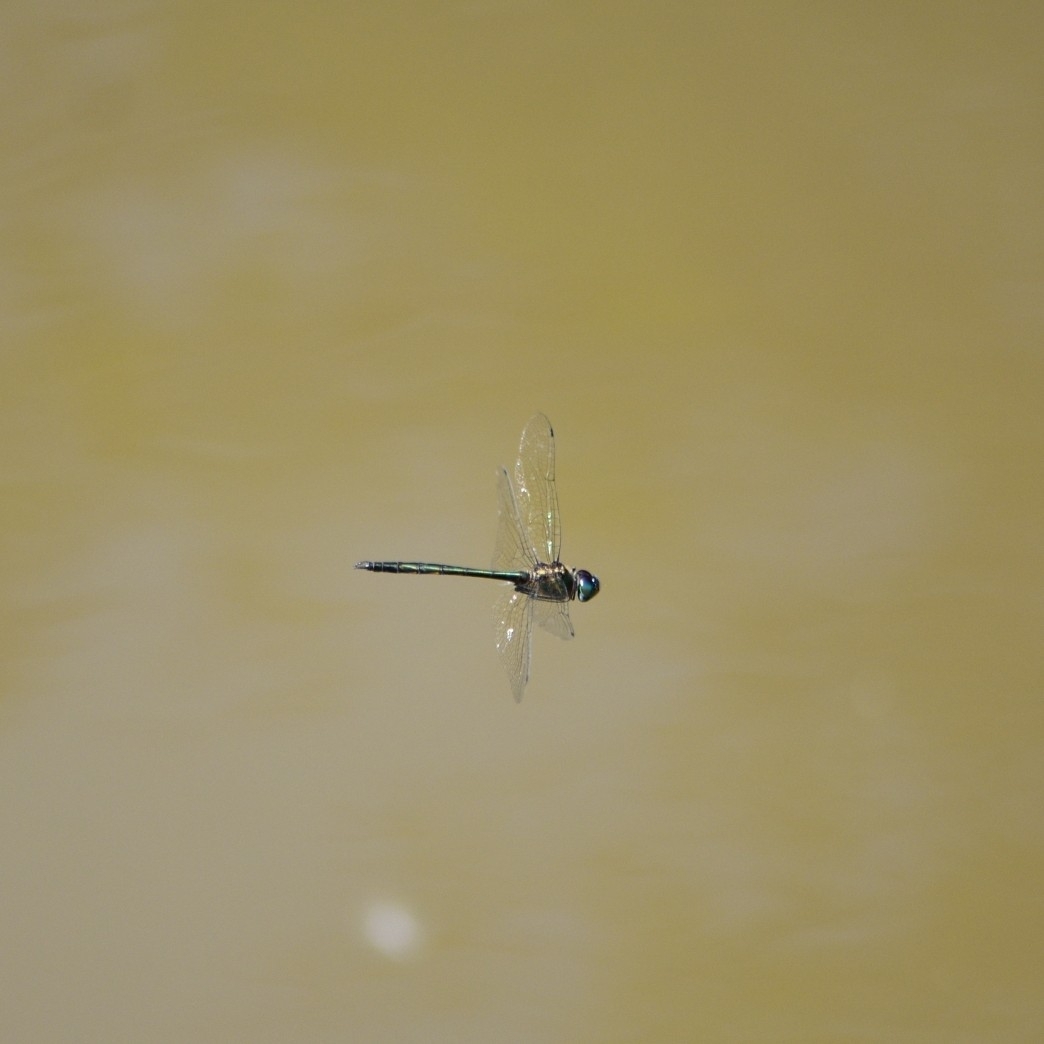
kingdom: Animalia
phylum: Arthropoda
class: Insecta
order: Odonata
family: Corduliidae
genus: Hemicordulia
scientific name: Hemicordulia asiatica
